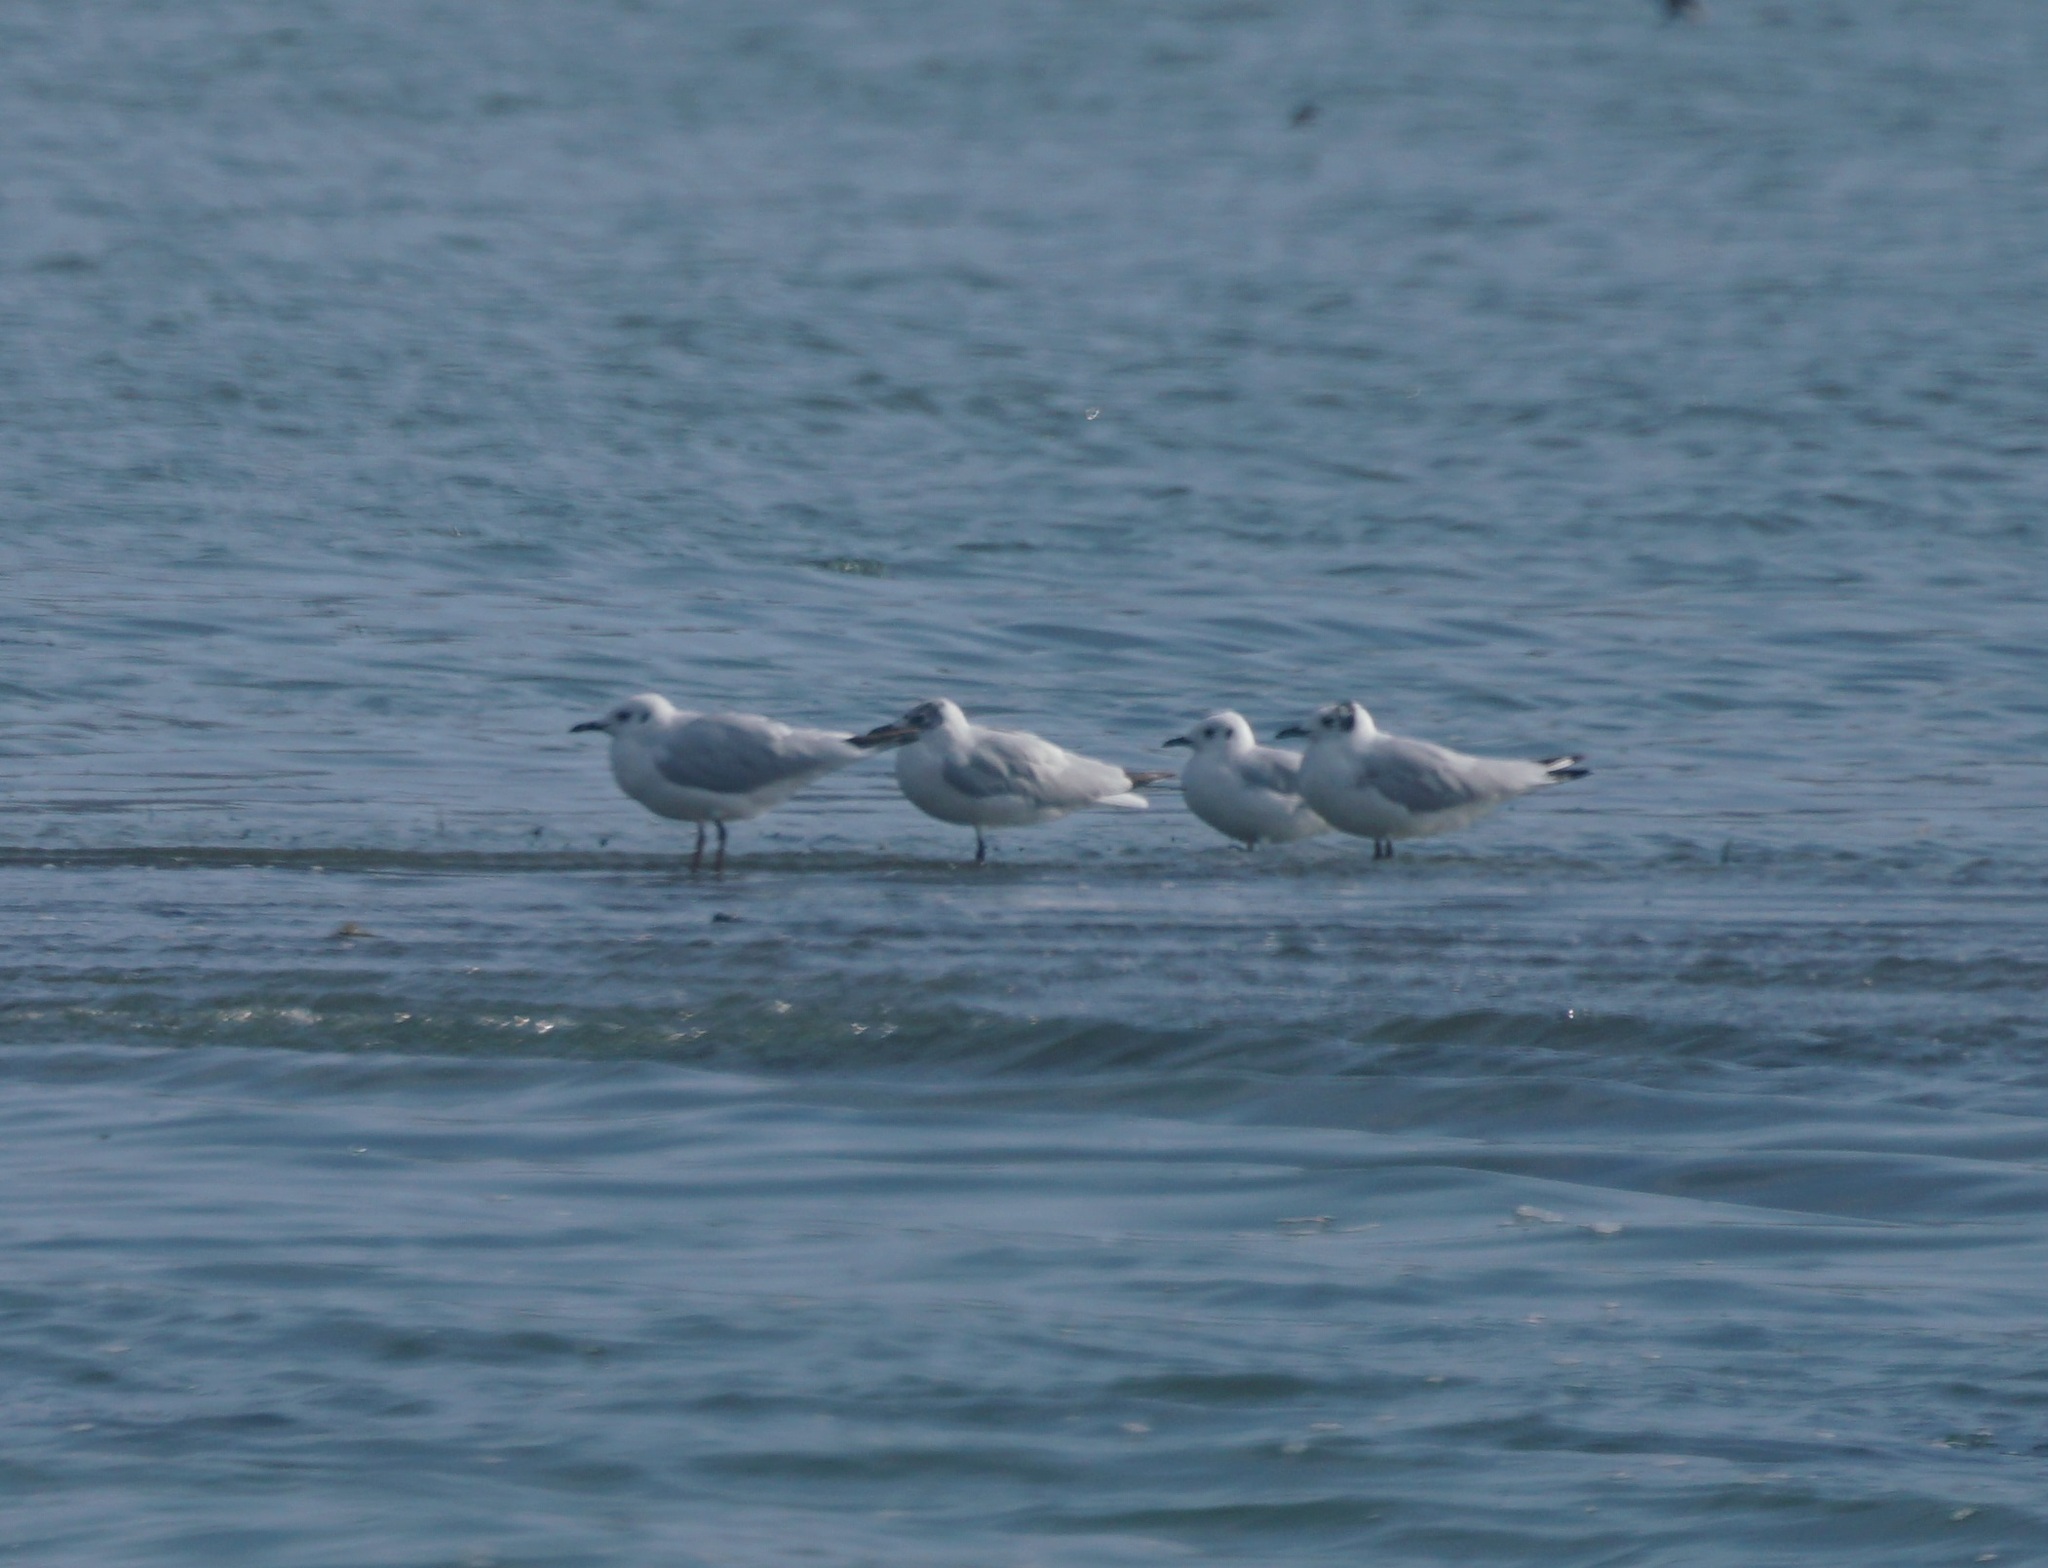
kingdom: Animalia
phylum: Chordata
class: Aves
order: Charadriiformes
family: Laridae
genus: Chroicocephalus
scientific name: Chroicocephalus serranus
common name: Andean gull
